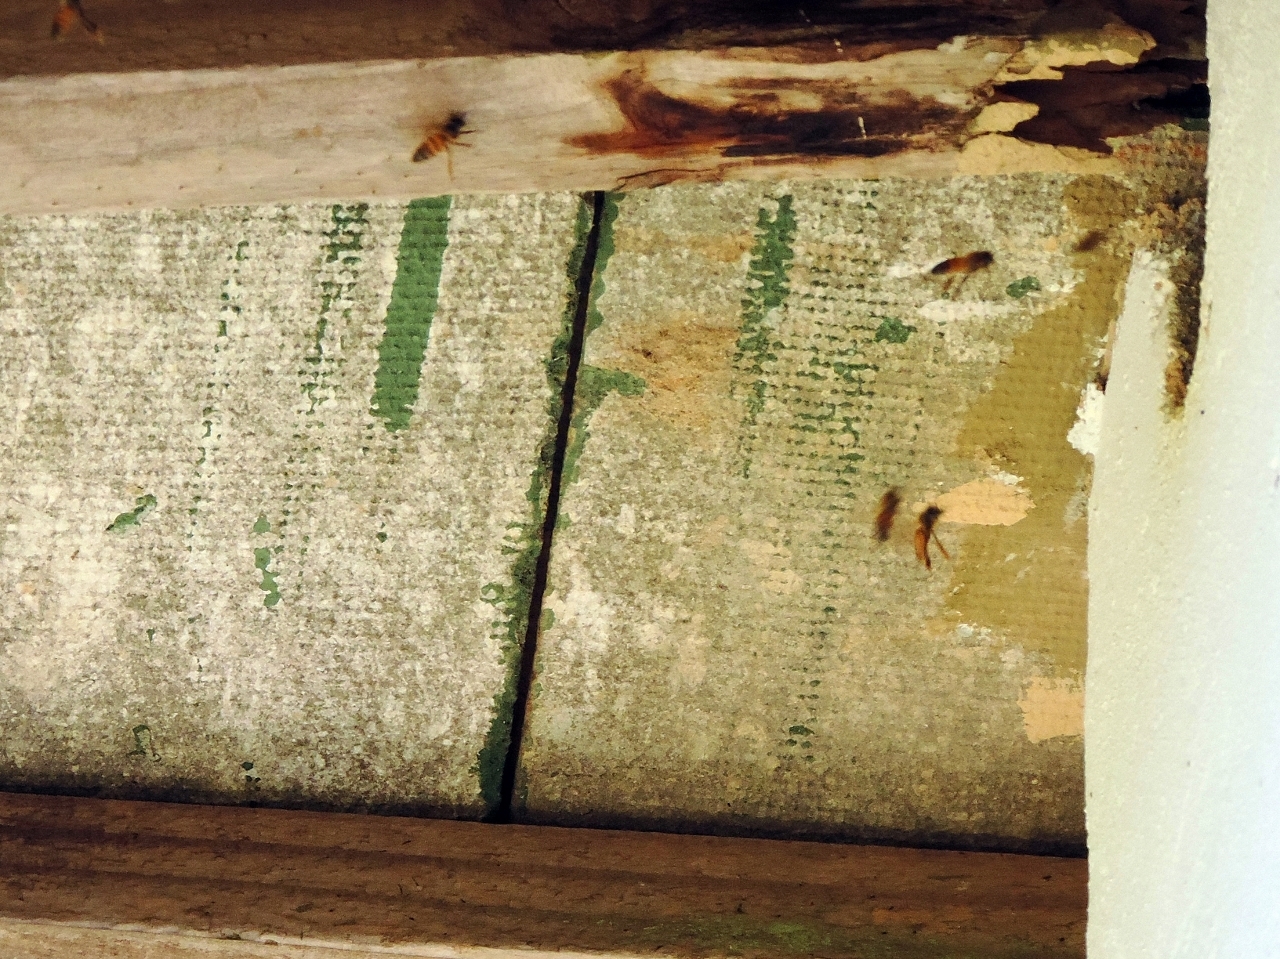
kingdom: Animalia
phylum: Arthropoda
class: Insecta
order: Hymenoptera
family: Apidae
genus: Apis
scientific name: Apis mellifera
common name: Honey bee
